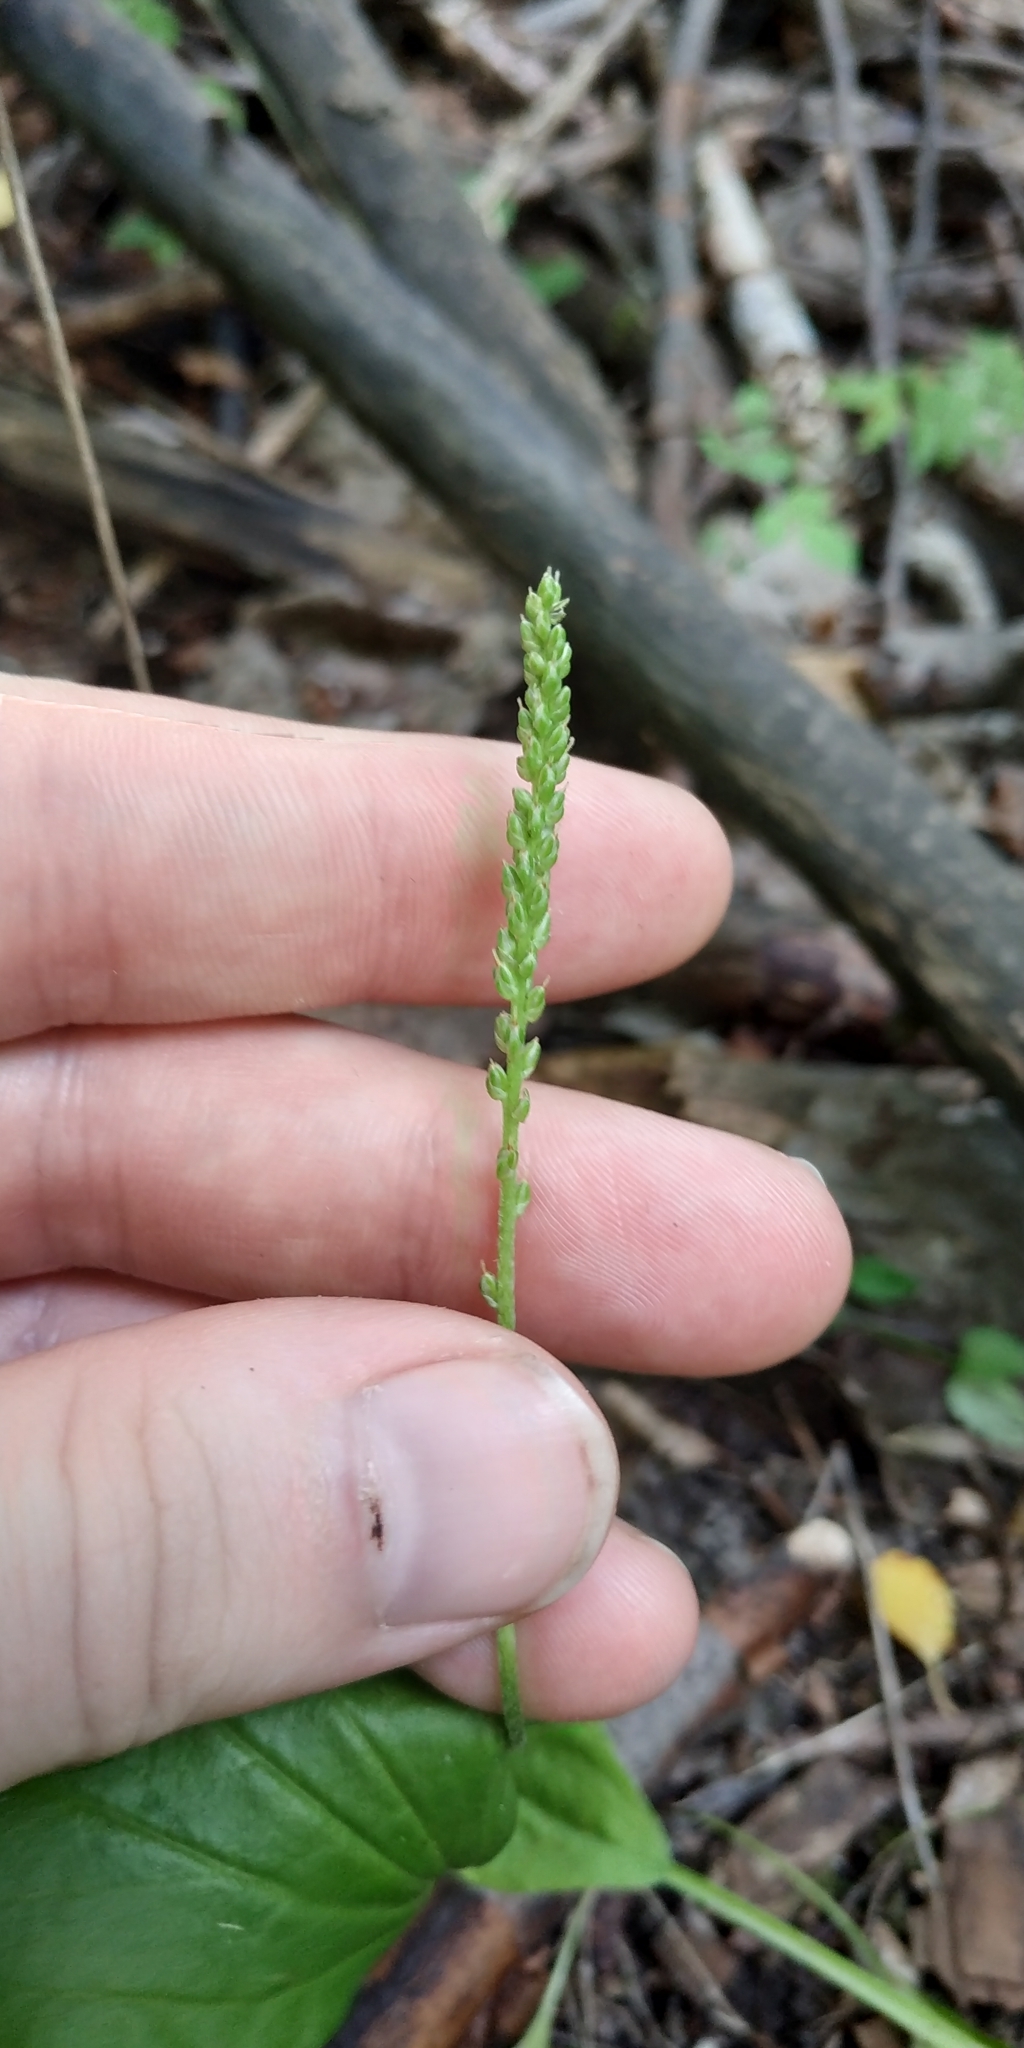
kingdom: Plantae
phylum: Tracheophyta
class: Magnoliopsida
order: Lamiales
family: Plantaginaceae
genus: Plantago
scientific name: Plantago major
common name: Common plantain
